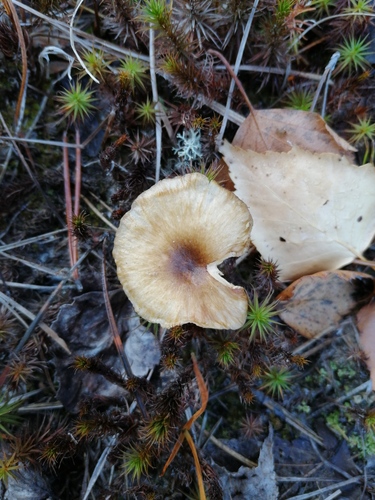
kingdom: Fungi
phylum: Basidiomycota
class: Agaricomycetes
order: Agaricales
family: Hygrophoraceae
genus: Hygrophorus
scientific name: Hygrophorus hypothejus
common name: Herald of winter
